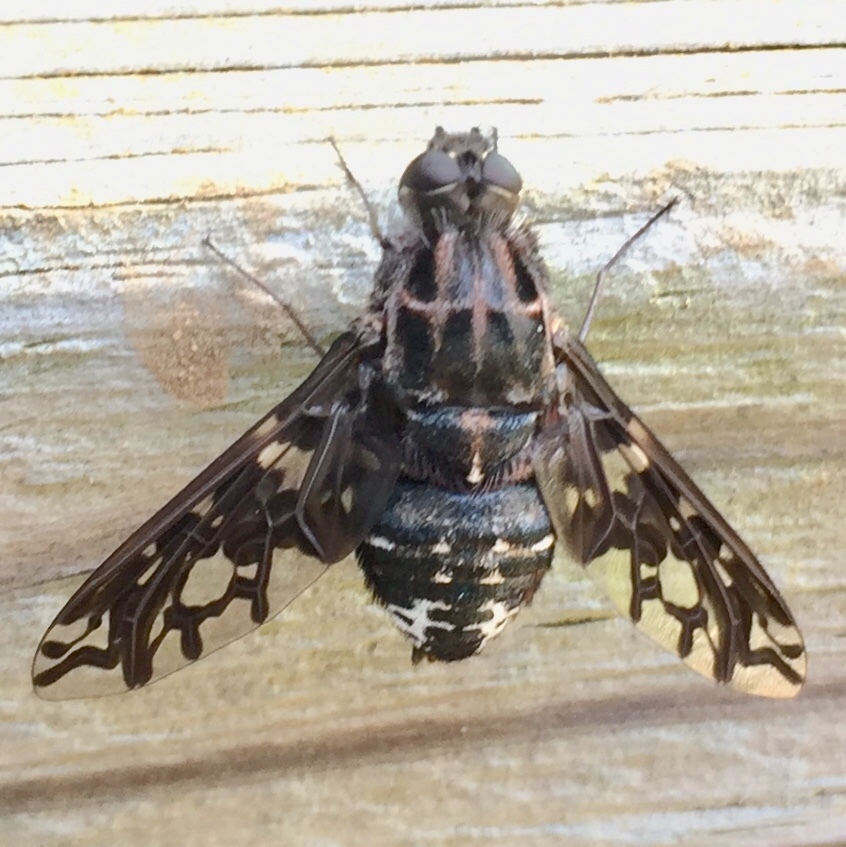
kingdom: Animalia
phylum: Arthropoda
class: Insecta
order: Diptera
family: Bombyliidae
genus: Xenox
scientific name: Xenox tigrinus
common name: Tiger bee fly
